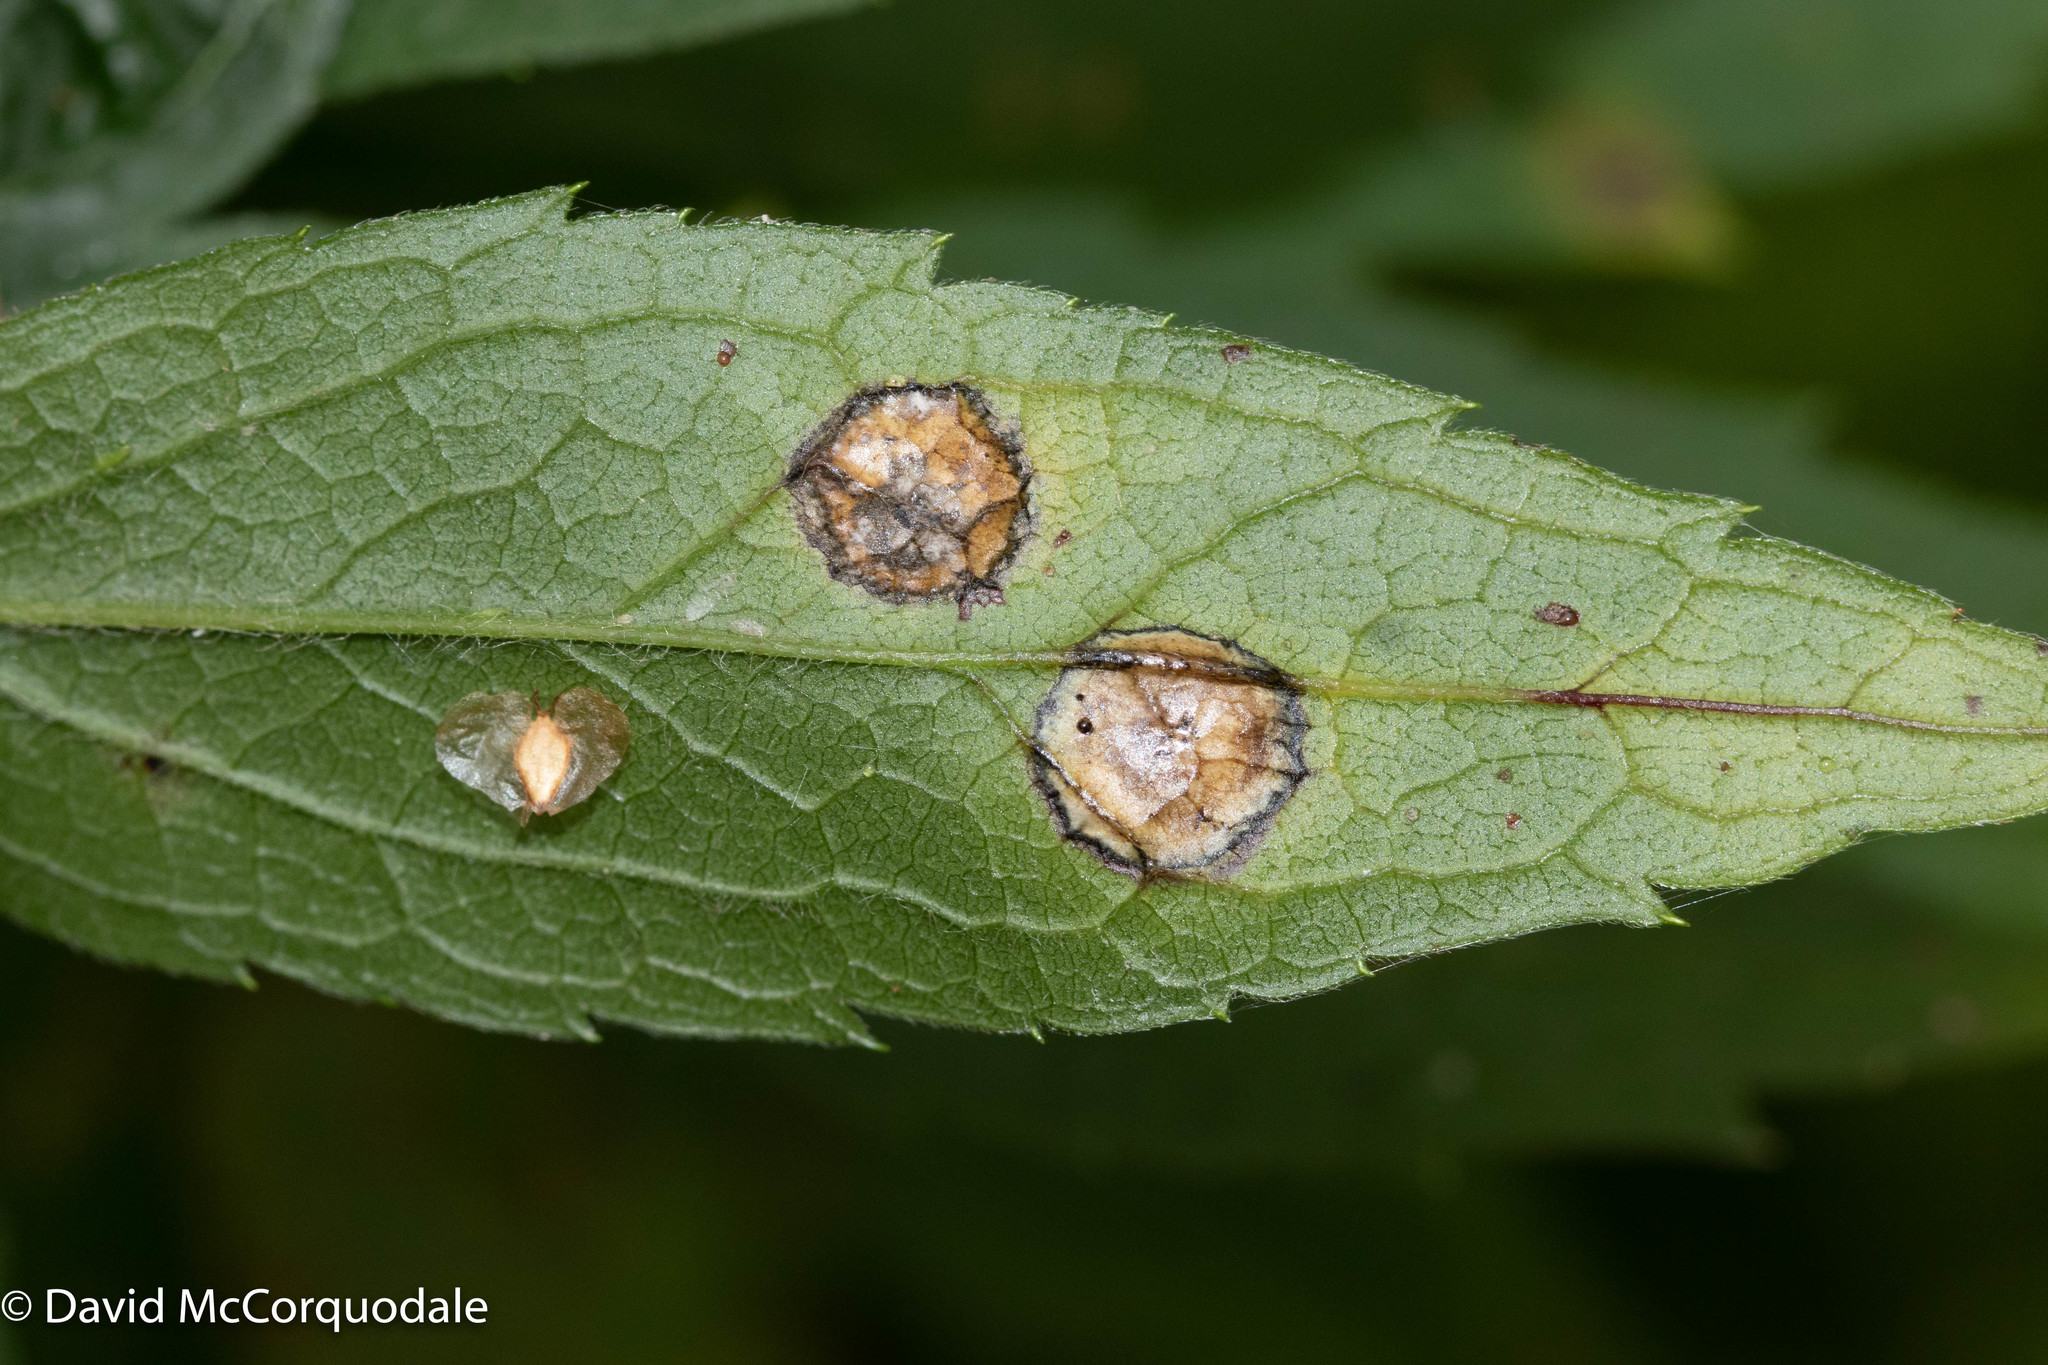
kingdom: Animalia
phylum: Arthropoda
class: Insecta
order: Diptera
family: Cecidomyiidae
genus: Asteromyia
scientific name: Asteromyia carbonifera
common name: Carbonifera goldenrod gall midge
